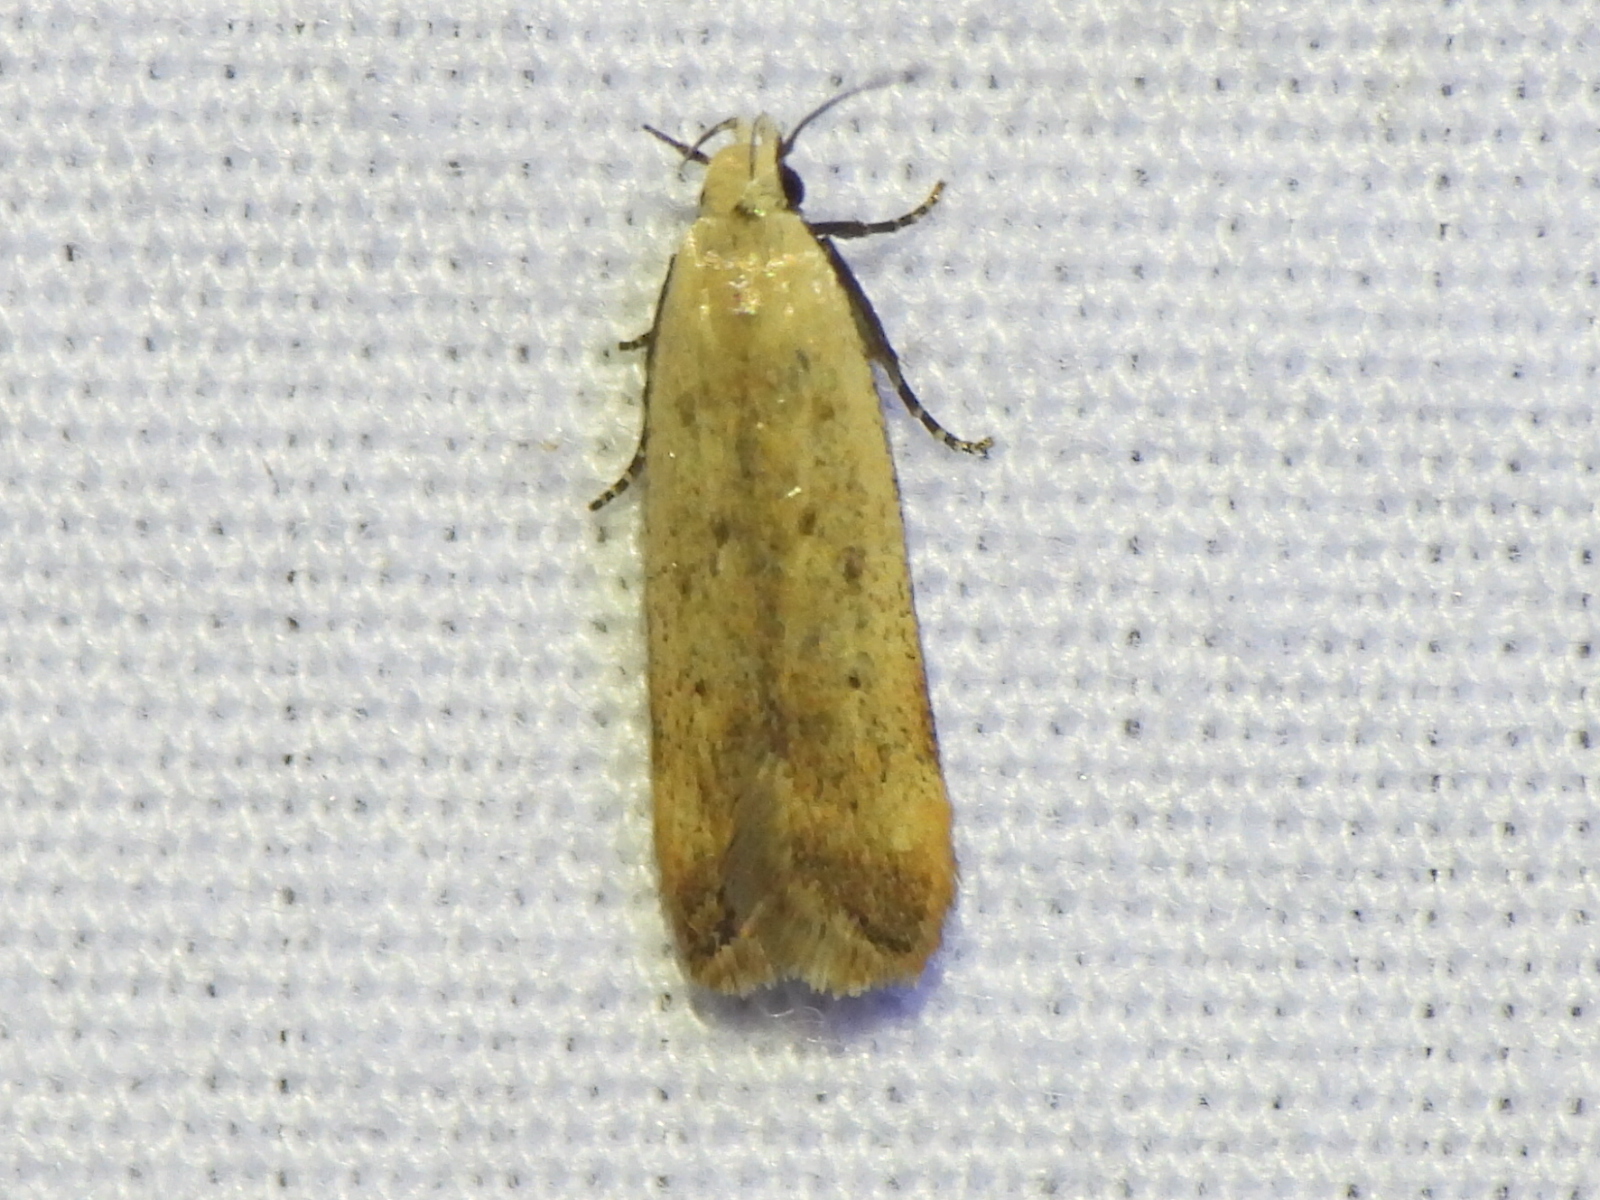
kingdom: Animalia
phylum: Arthropoda
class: Insecta
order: Lepidoptera
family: Gelechiidae
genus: Anacampsis
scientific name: Anacampsis fullonella
